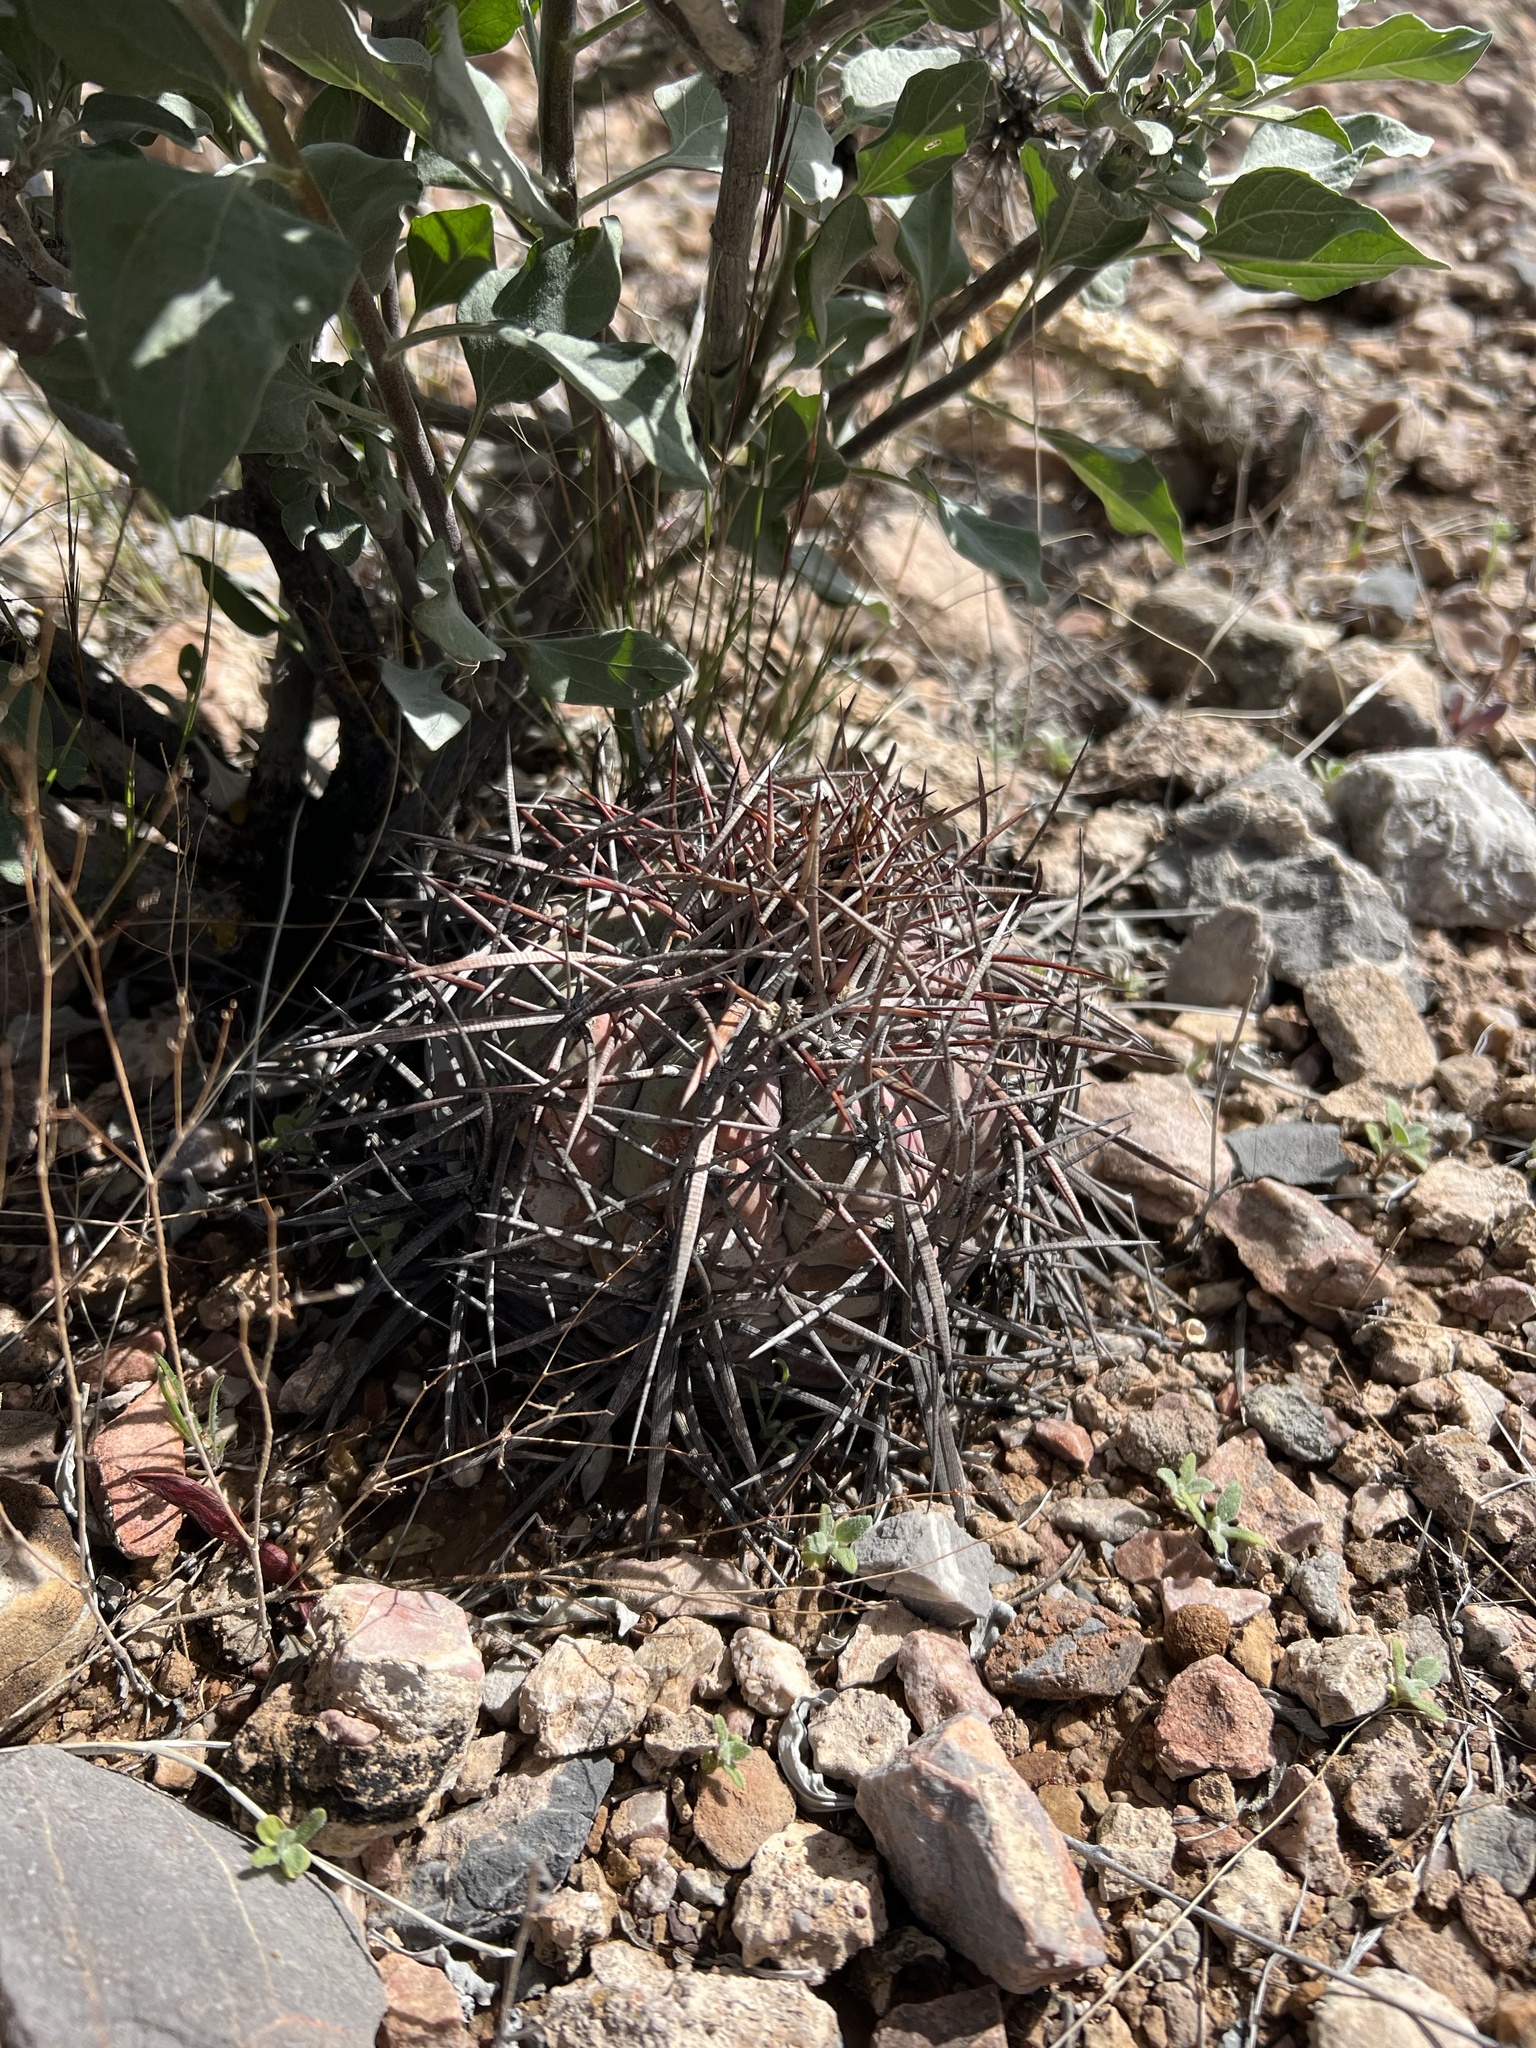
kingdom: Plantae
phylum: Tracheophyta
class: Magnoliopsida
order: Caryophyllales
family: Cactaceae
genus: Echinocactus
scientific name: Echinocactus horizonthalonius
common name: Devilshead
